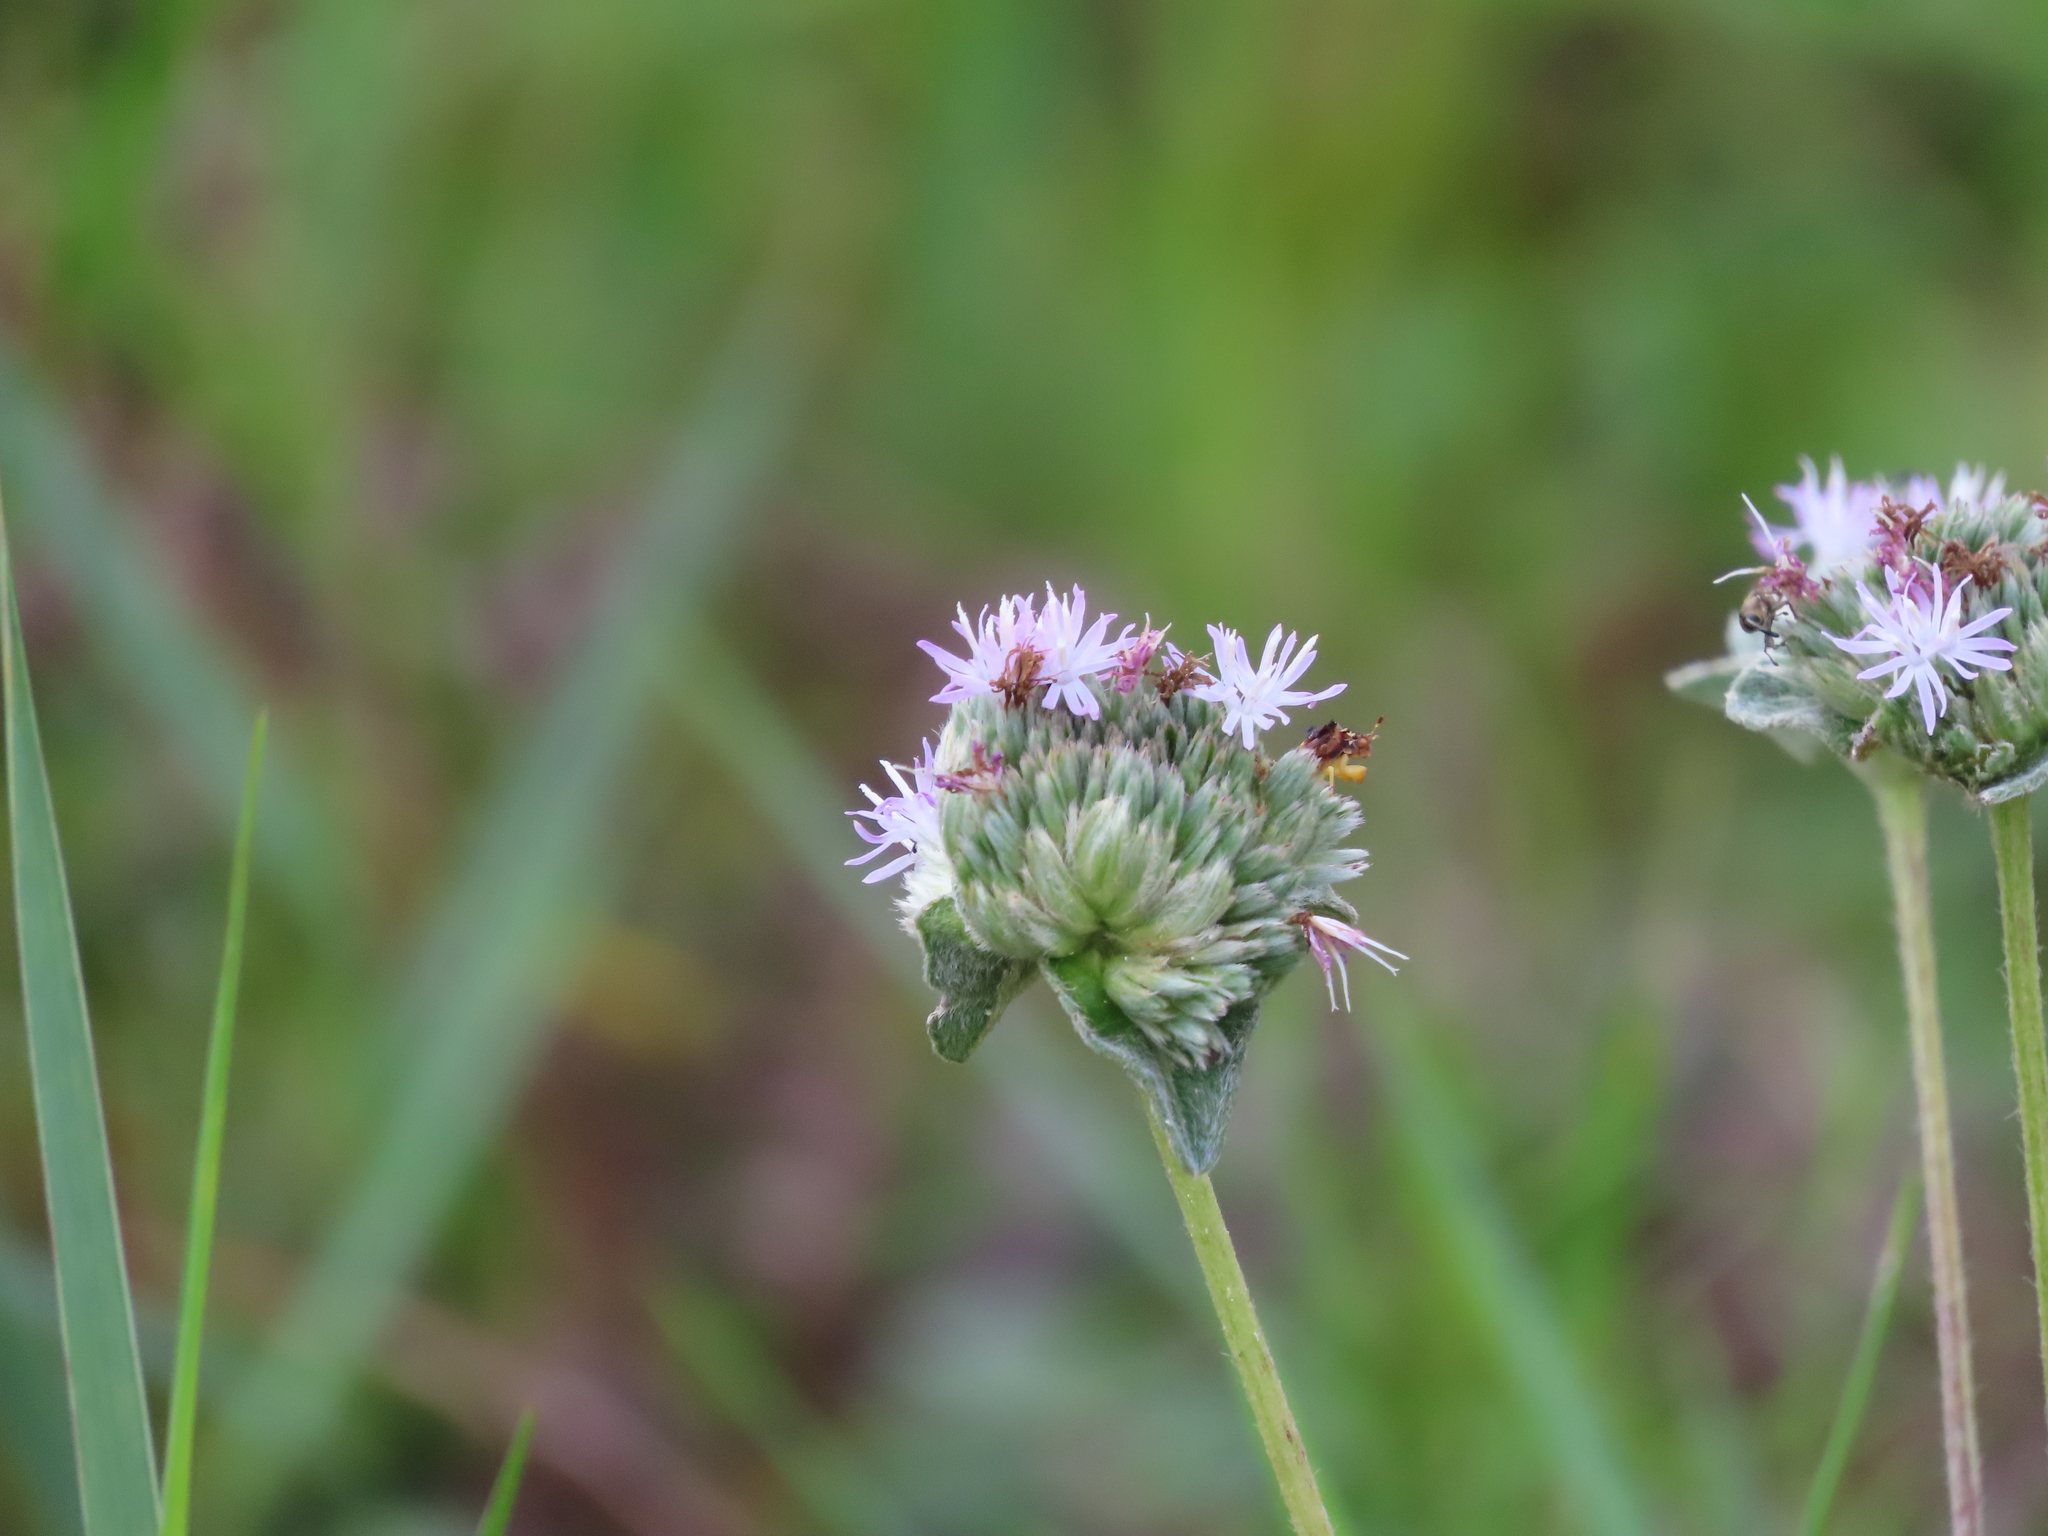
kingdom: Plantae
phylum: Tracheophyta
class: Magnoliopsida
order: Asterales
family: Asteraceae
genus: Elephantopus
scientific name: Elephantopus elatus
